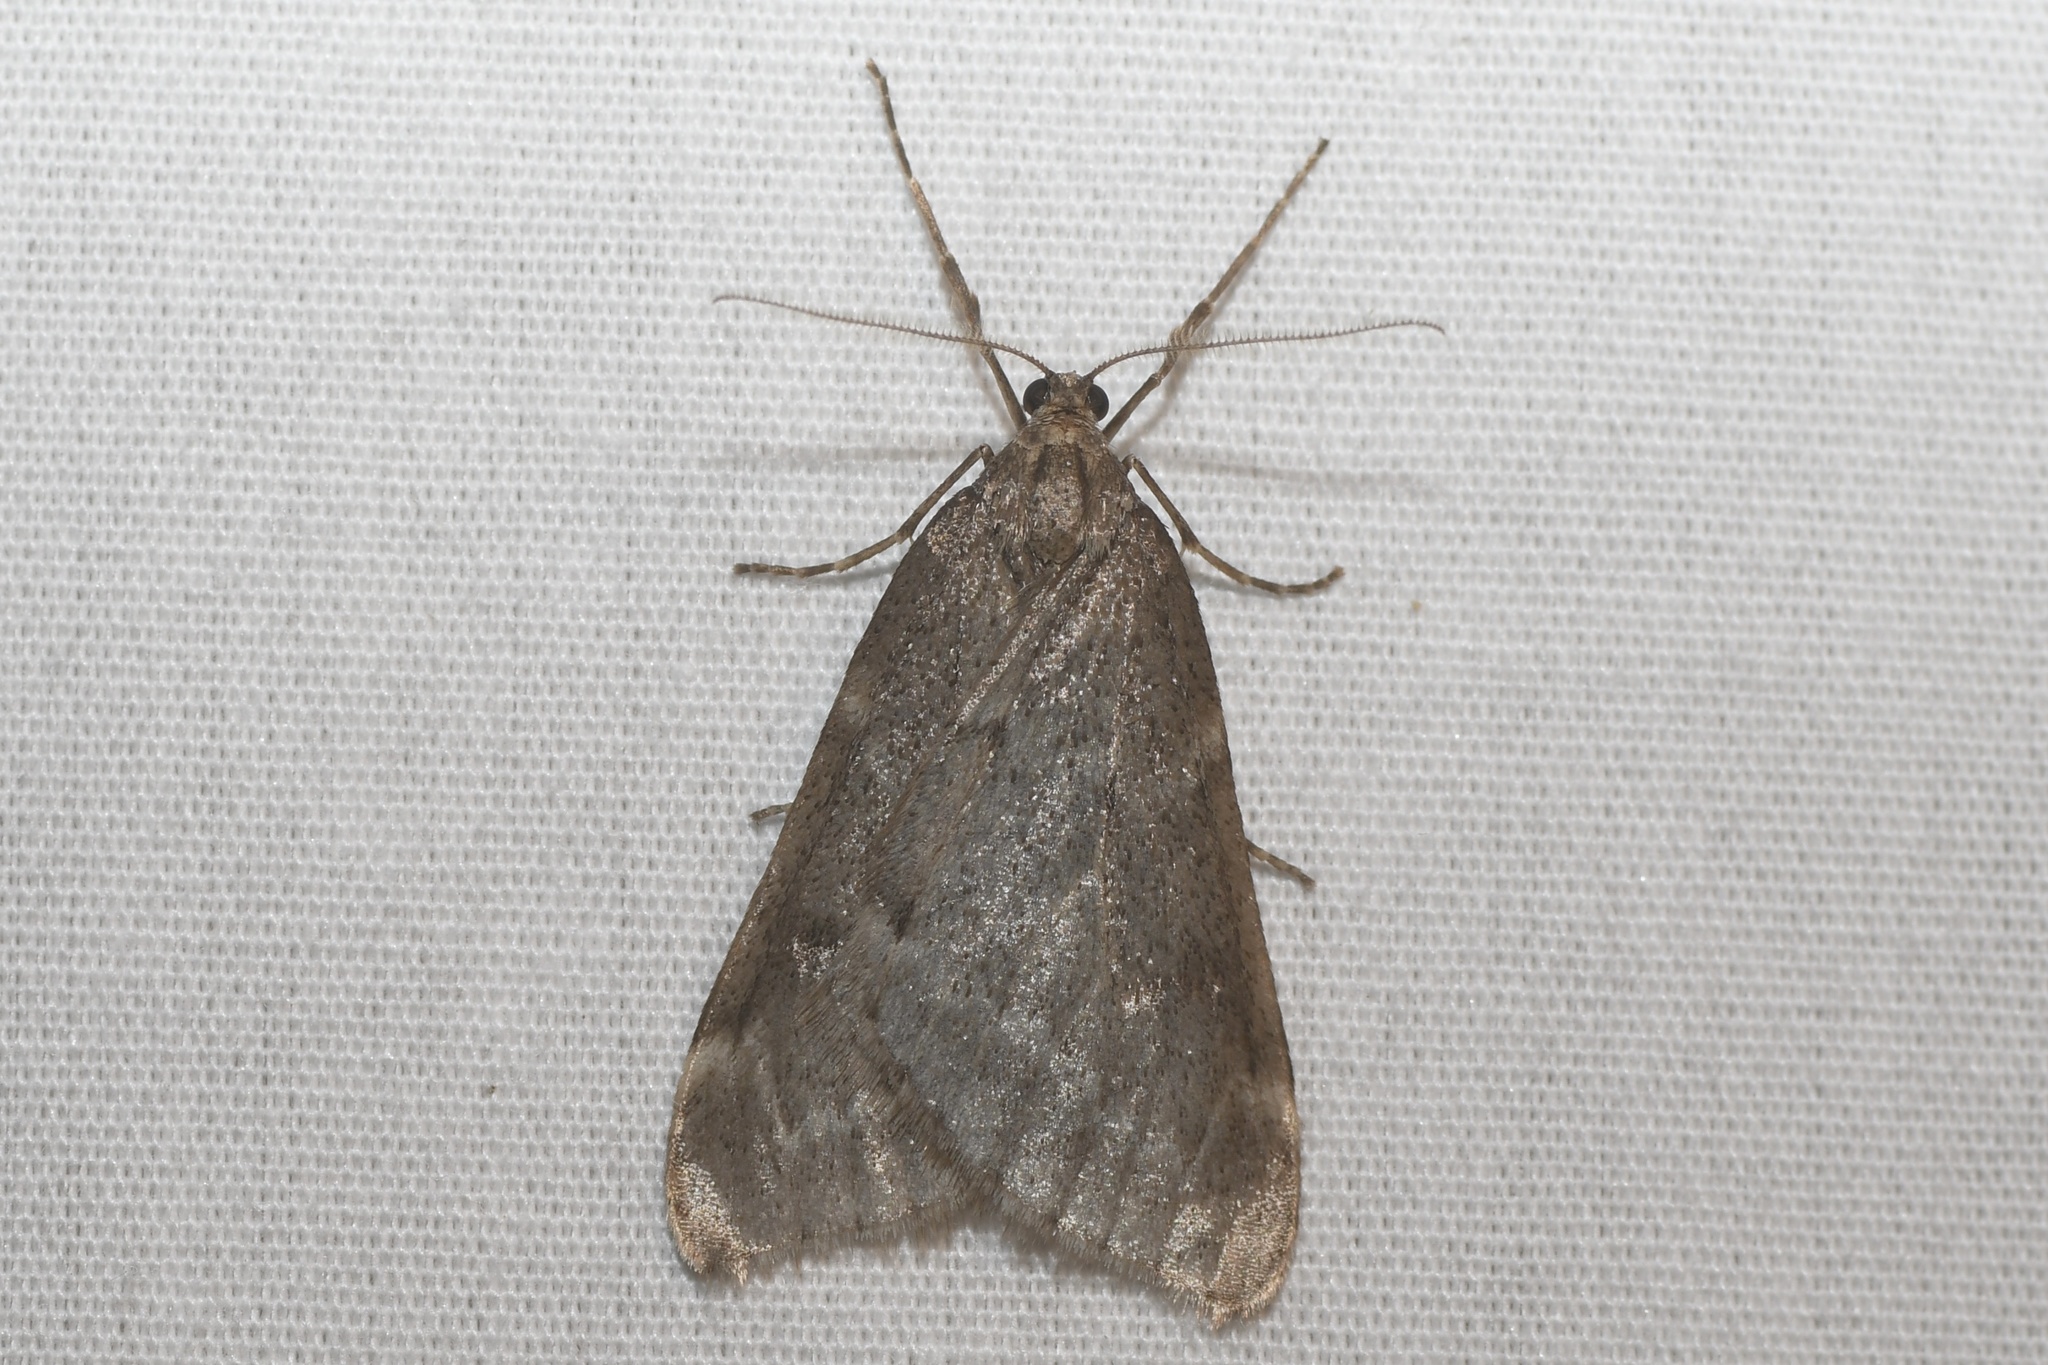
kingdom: Animalia
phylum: Arthropoda
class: Insecta
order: Lepidoptera
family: Geometridae
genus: Alsophila
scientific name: Alsophila pometaria
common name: Fall cankerworm
